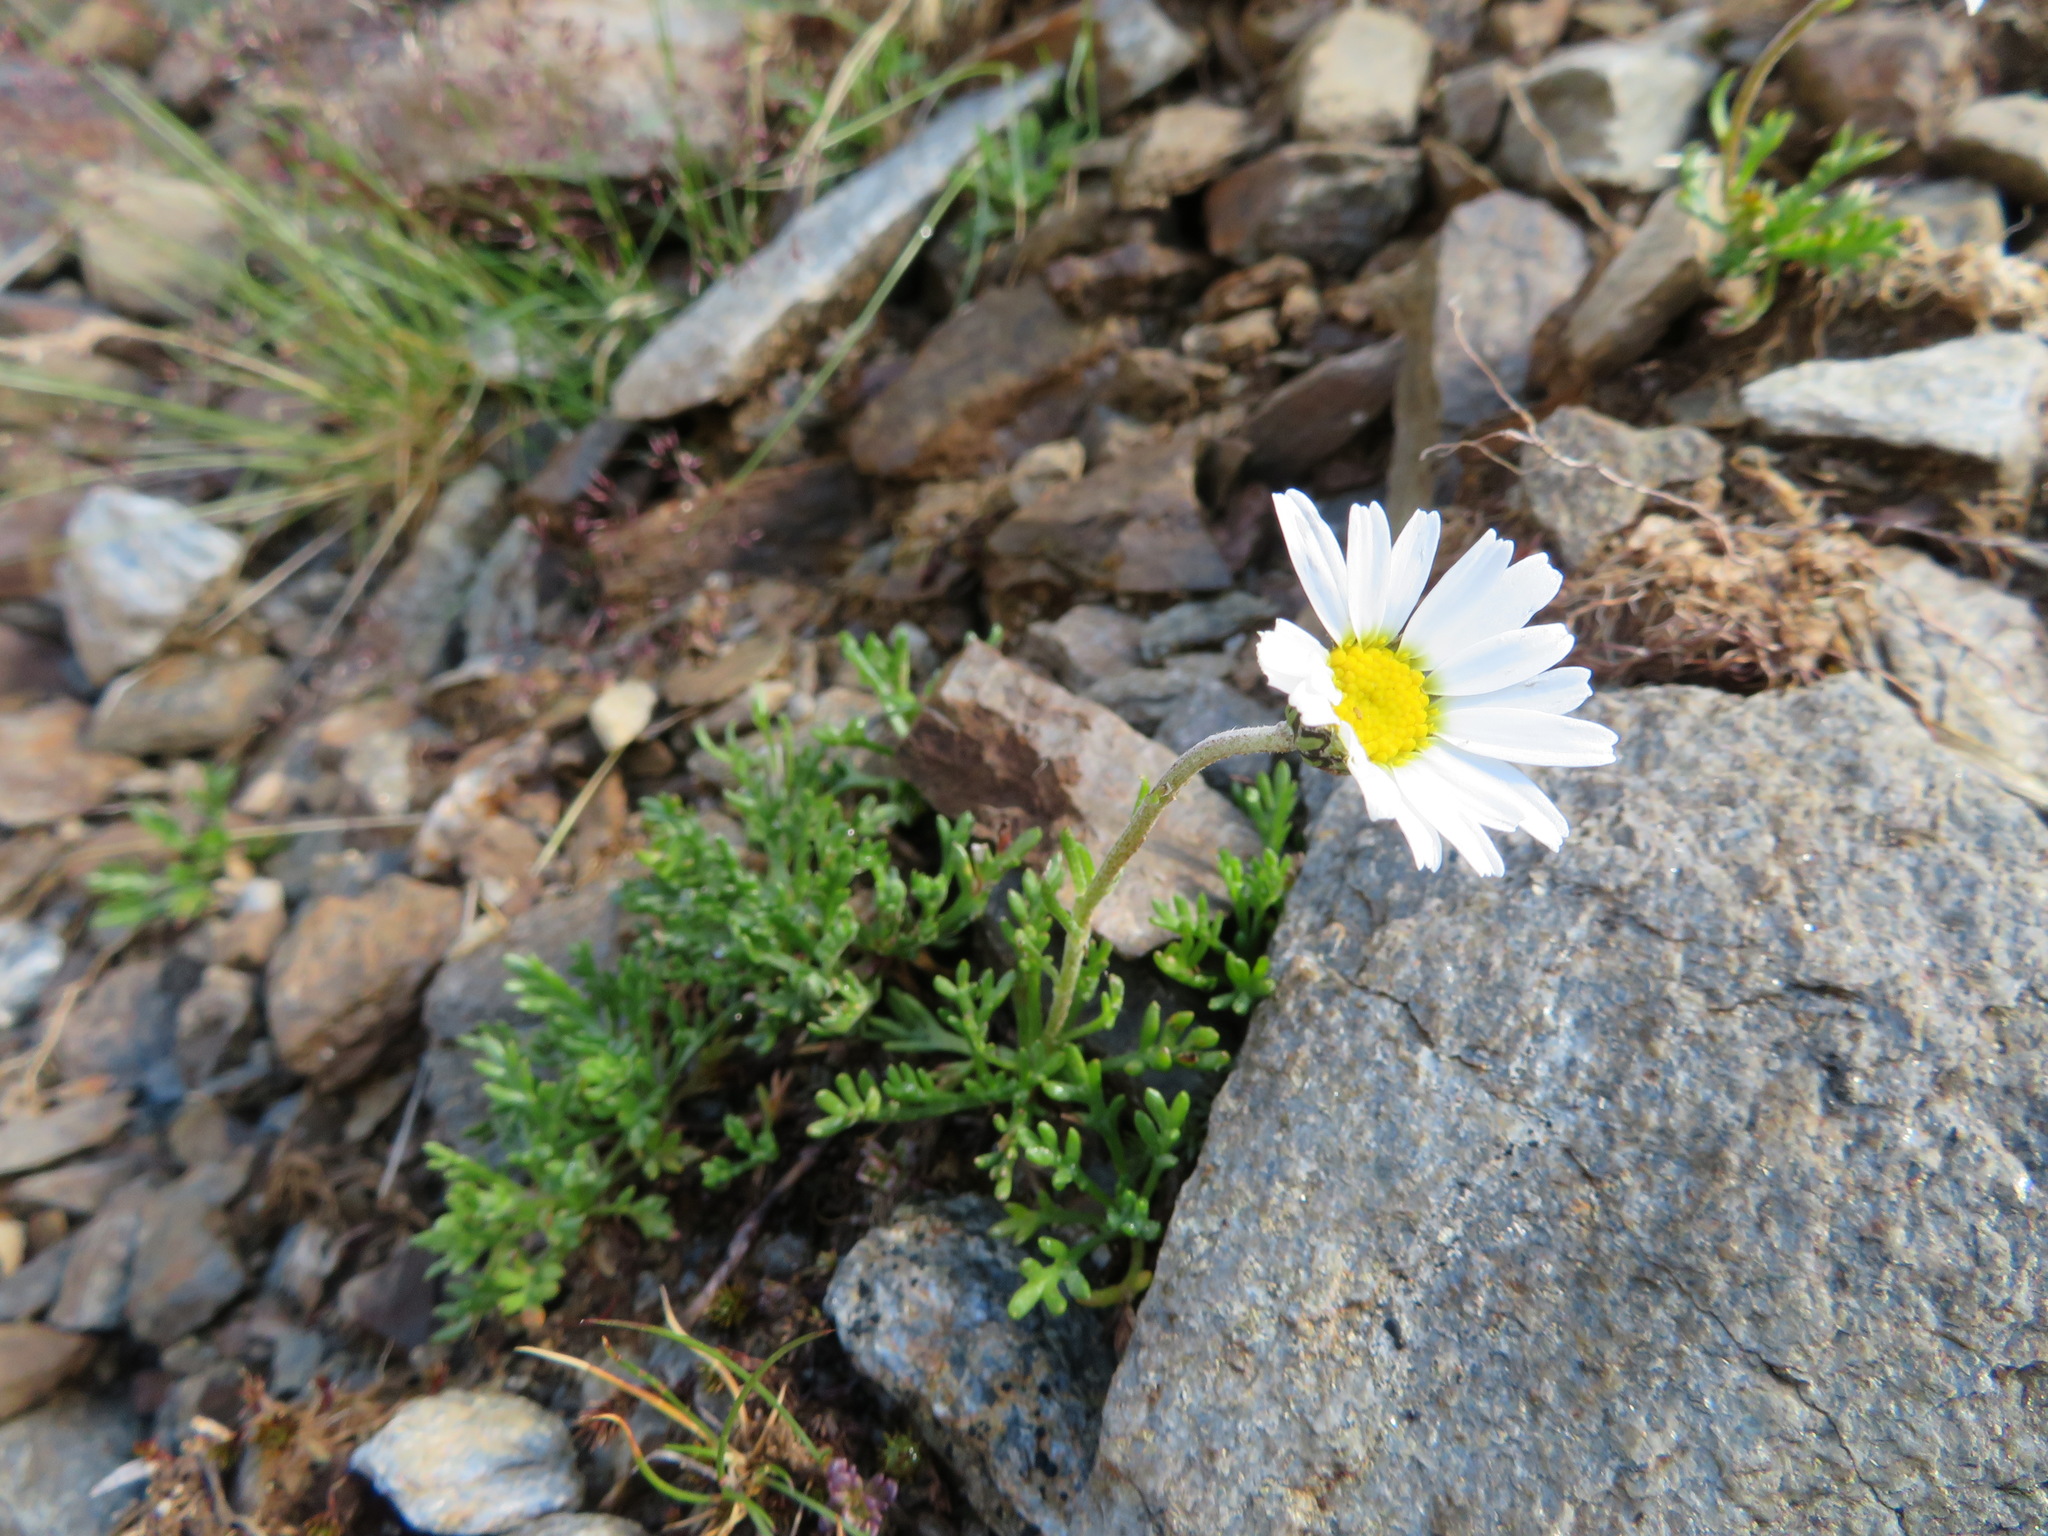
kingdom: Plantae
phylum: Tracheophyta
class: Magnoliopsida
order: Asterales
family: Asteraceae
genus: Leucanthemopsis
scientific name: Leucanthemopsis alpina
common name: Alpine moon daisy
